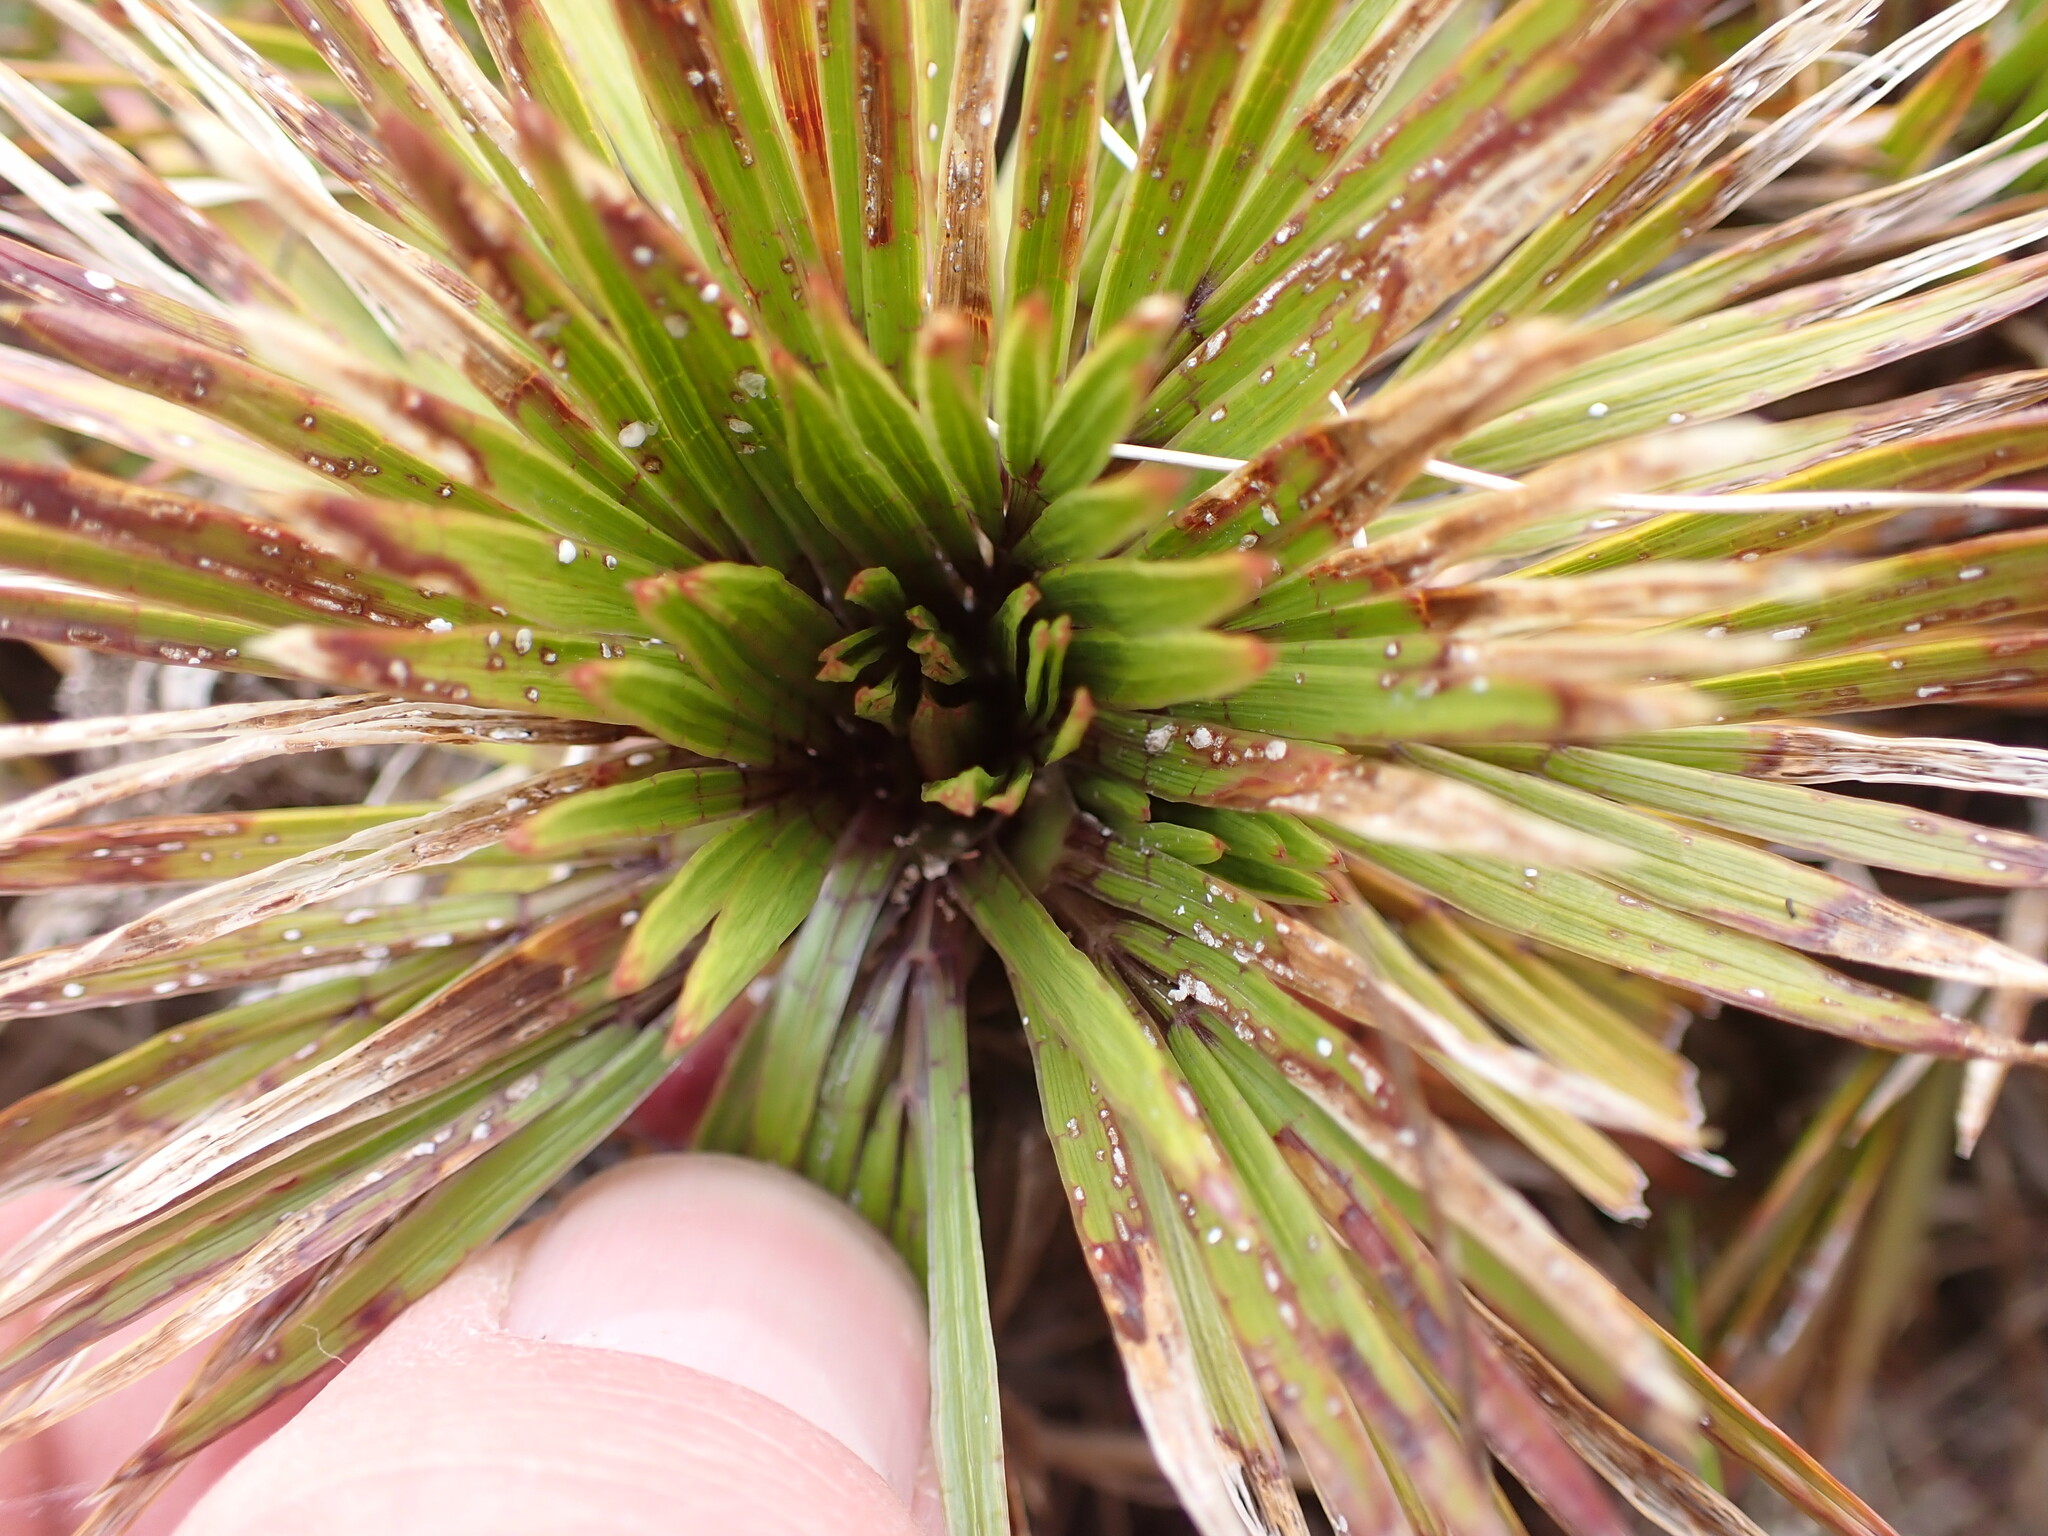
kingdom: Plantae
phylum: Tracheophyta
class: Magnoliopsida
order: Apiales
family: Apiaceae
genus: Aciphylla
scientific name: Aciphylla congesta
